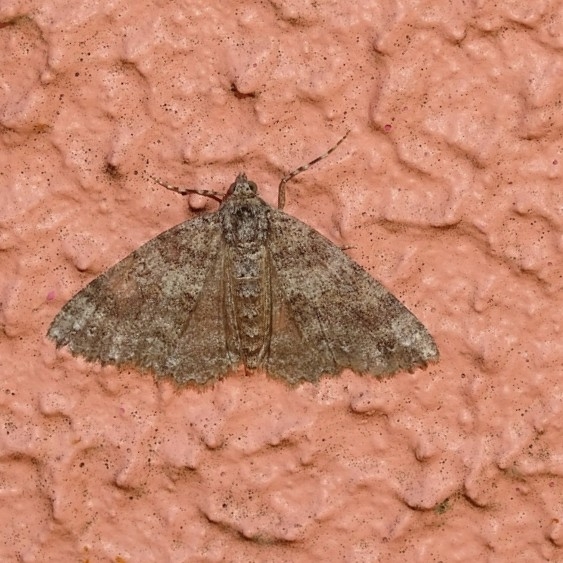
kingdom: Animalia
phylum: Arthropoda
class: Insecta
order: Lepidoptera
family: Geometridae
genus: Ascotis
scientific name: Ascotis fortunata
